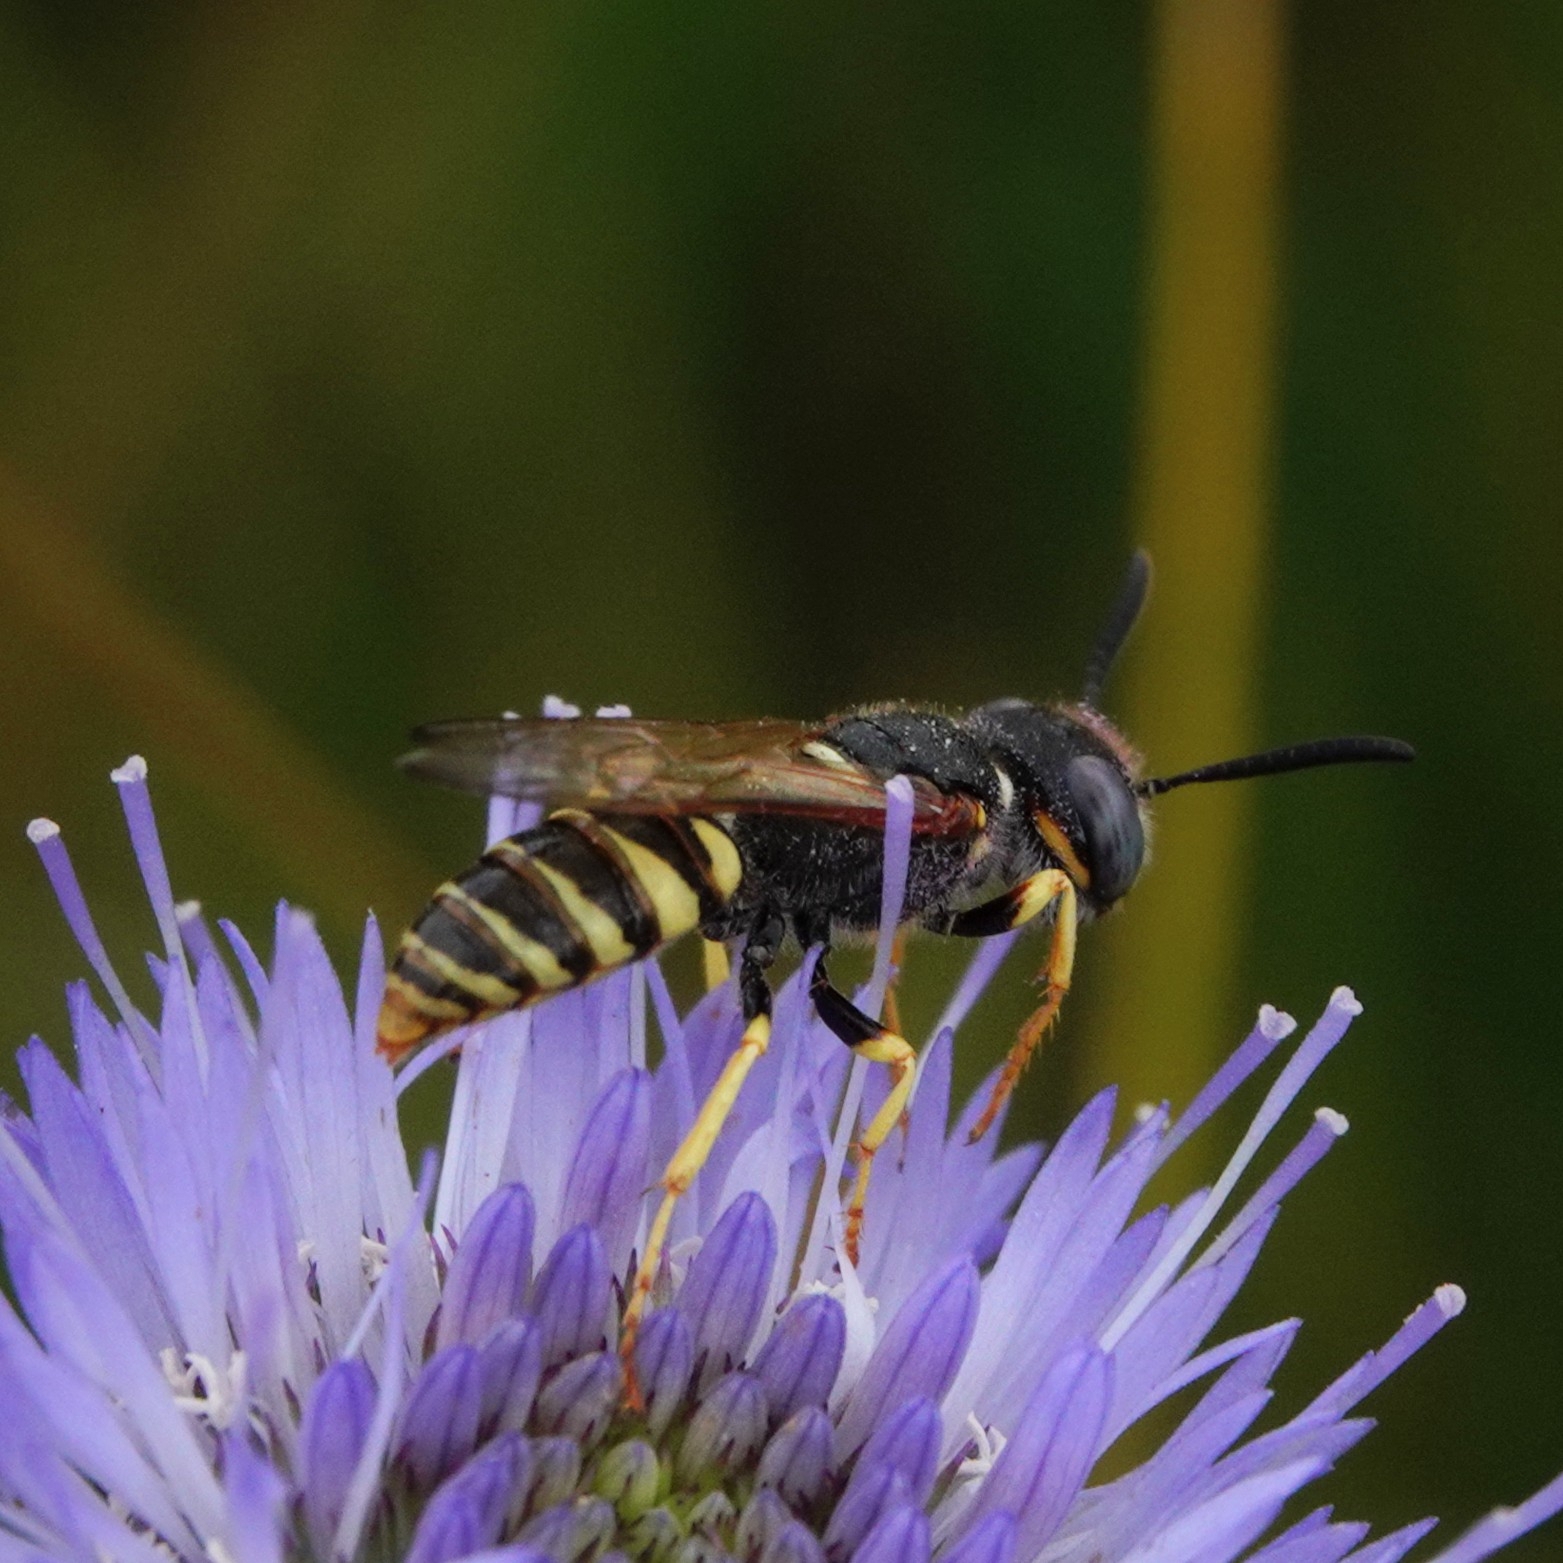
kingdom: Animalia
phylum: Arthropoda
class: Insecta
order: Hymenoptera
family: Crabronidae
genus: Philanthus
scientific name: Philanthus triangulum
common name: Bee wolf
